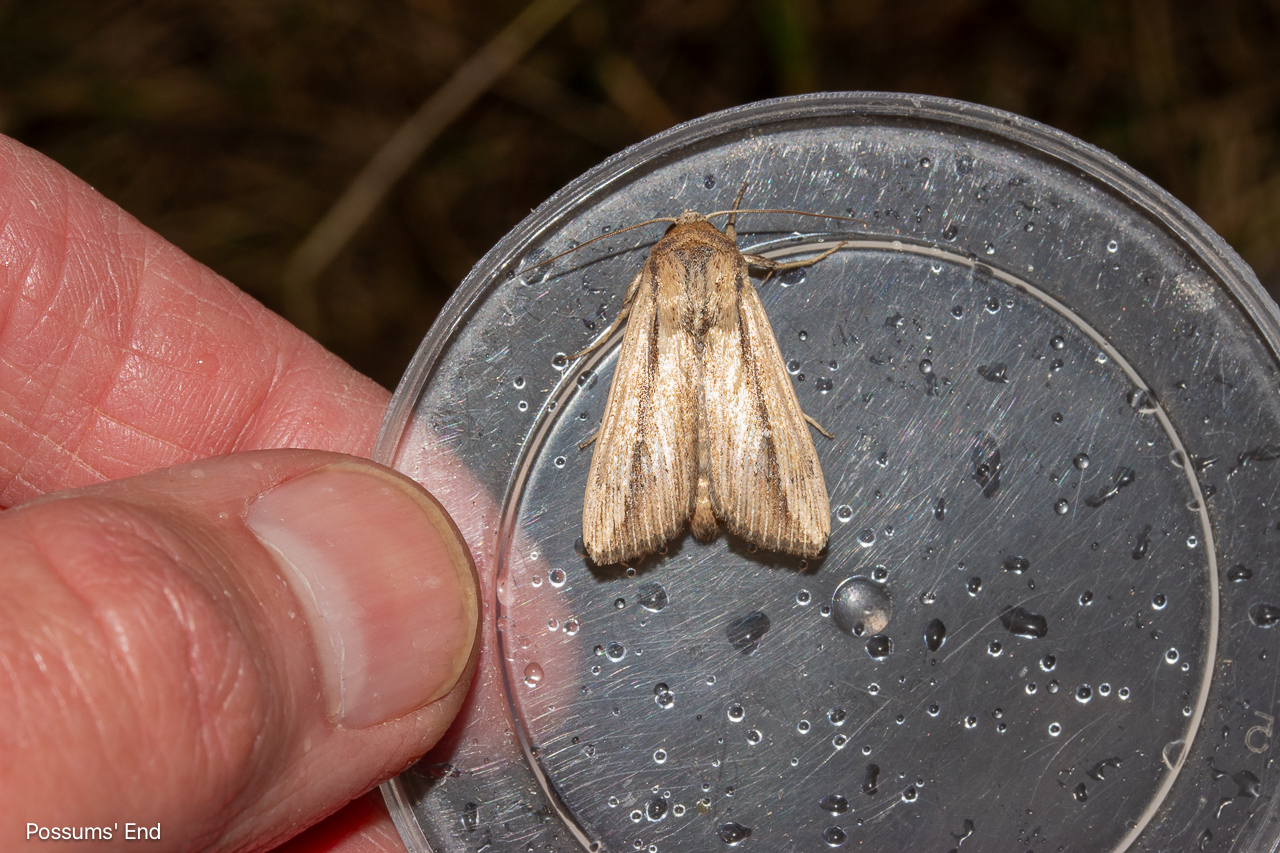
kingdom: Animalia
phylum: Arthropoda
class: Insecta
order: Lepidoptera
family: Noctuidae
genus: Leucania
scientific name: Leucania stenographa
